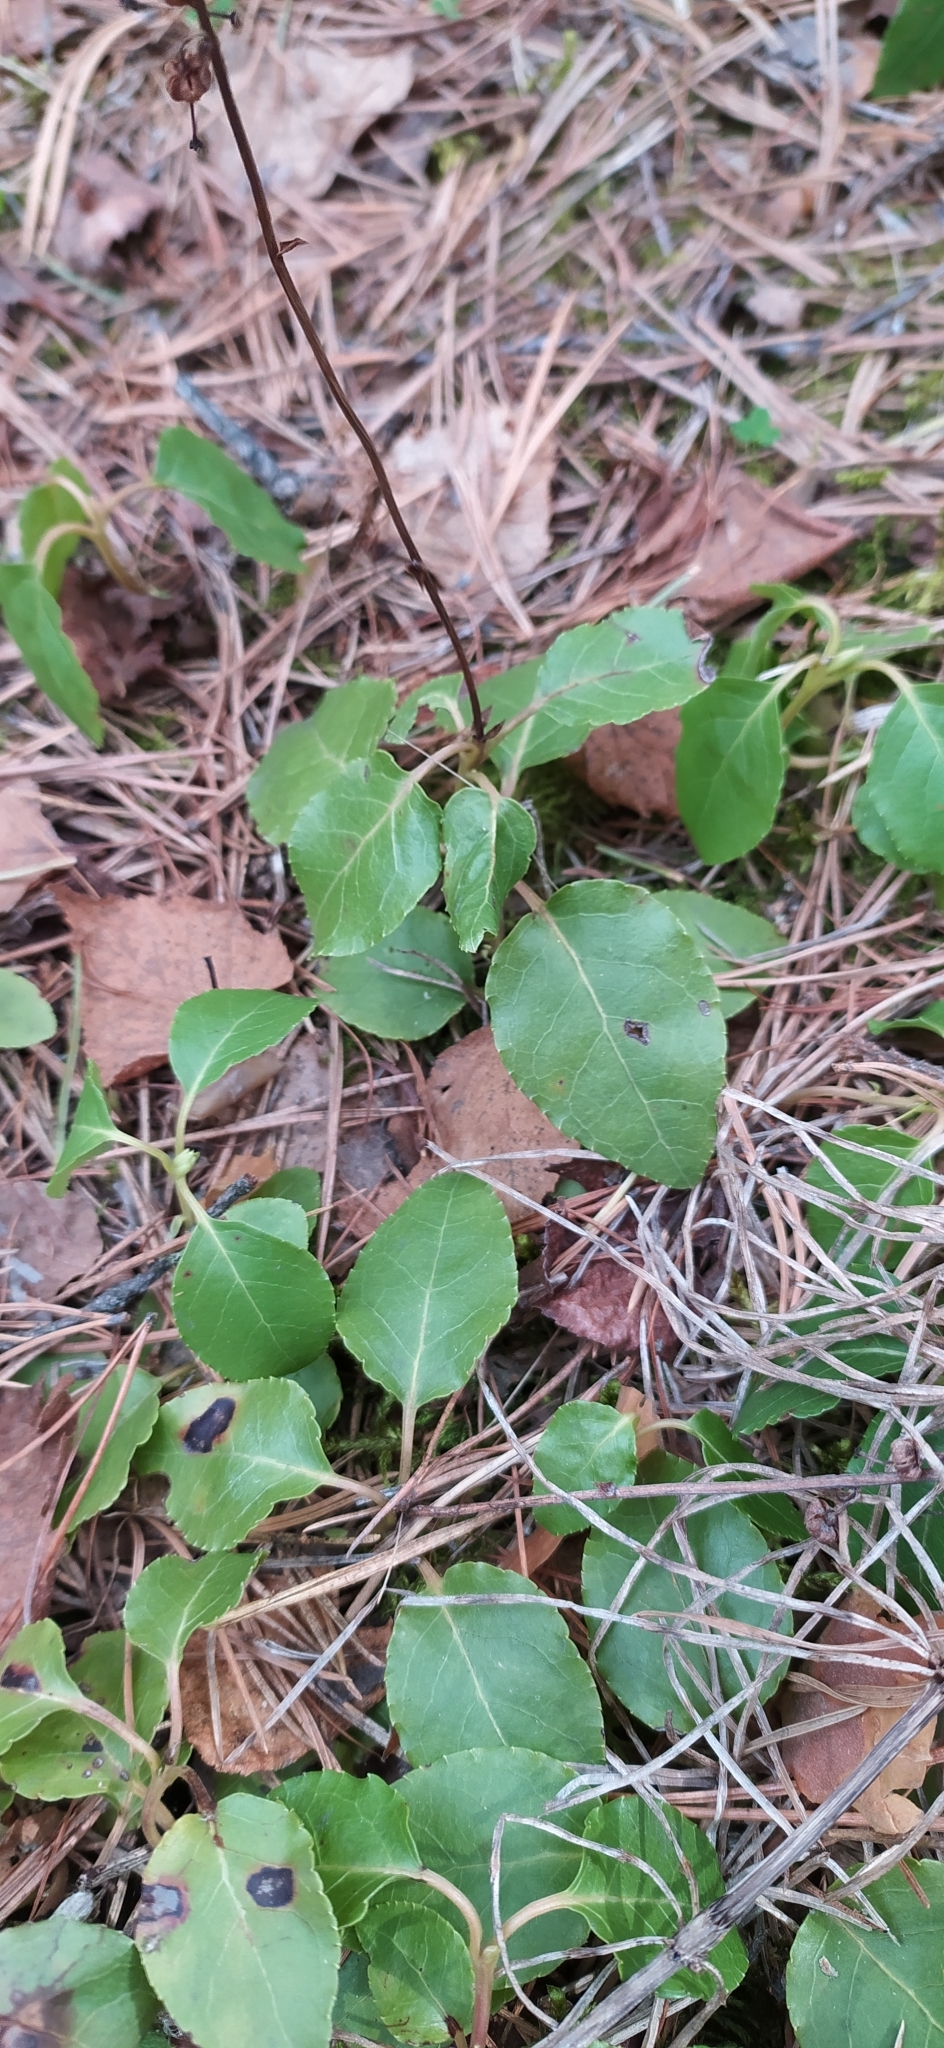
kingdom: Plantae
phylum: Tracheophyta
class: Magnoliopsida
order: Ericales
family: Ericaceae
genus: Orthilia
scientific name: Orthilia secunda
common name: One-sided orthilia
